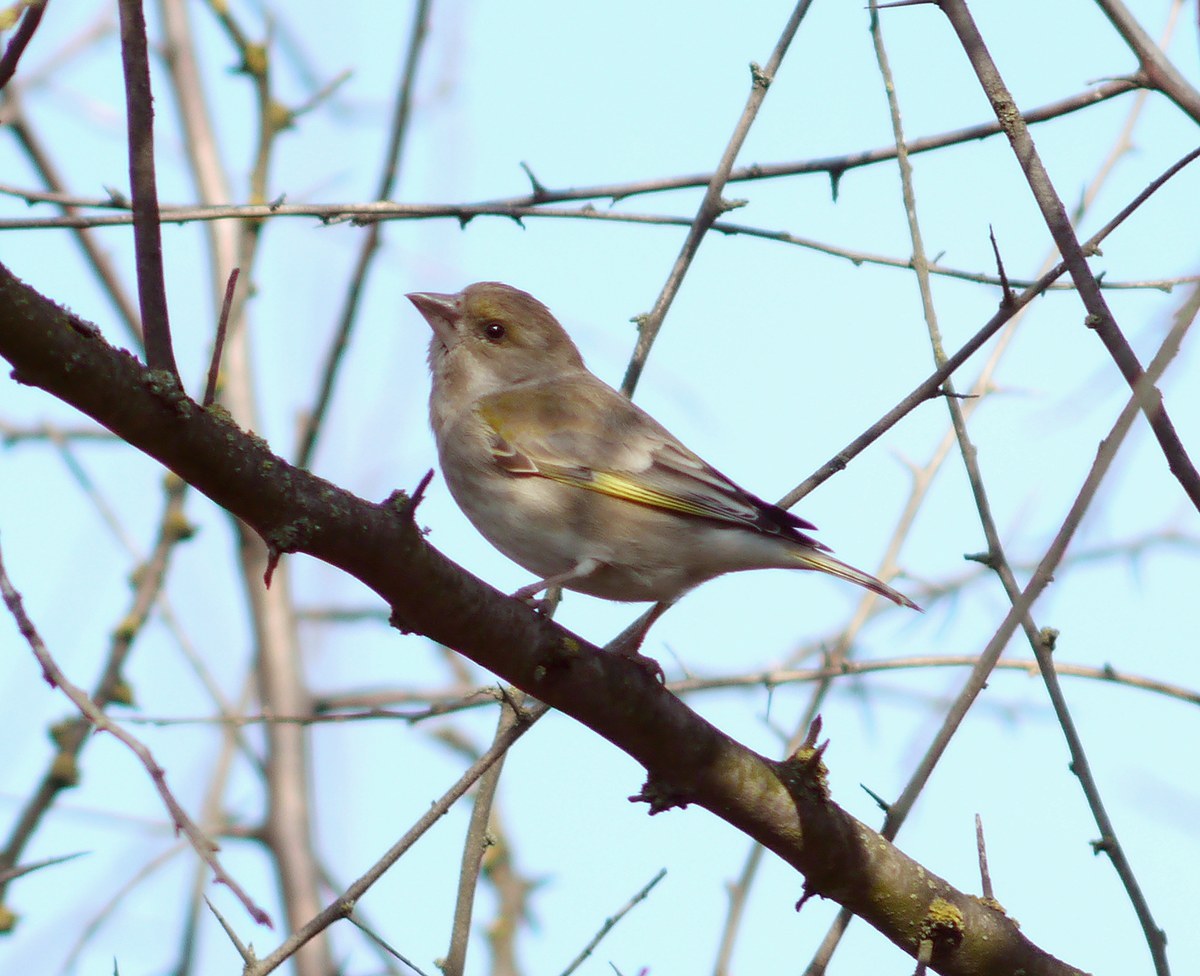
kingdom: Plantae
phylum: Tracheophyta
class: Liliopsida
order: Poales
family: Poaceae
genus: Chloris
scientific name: Chloris chloris
